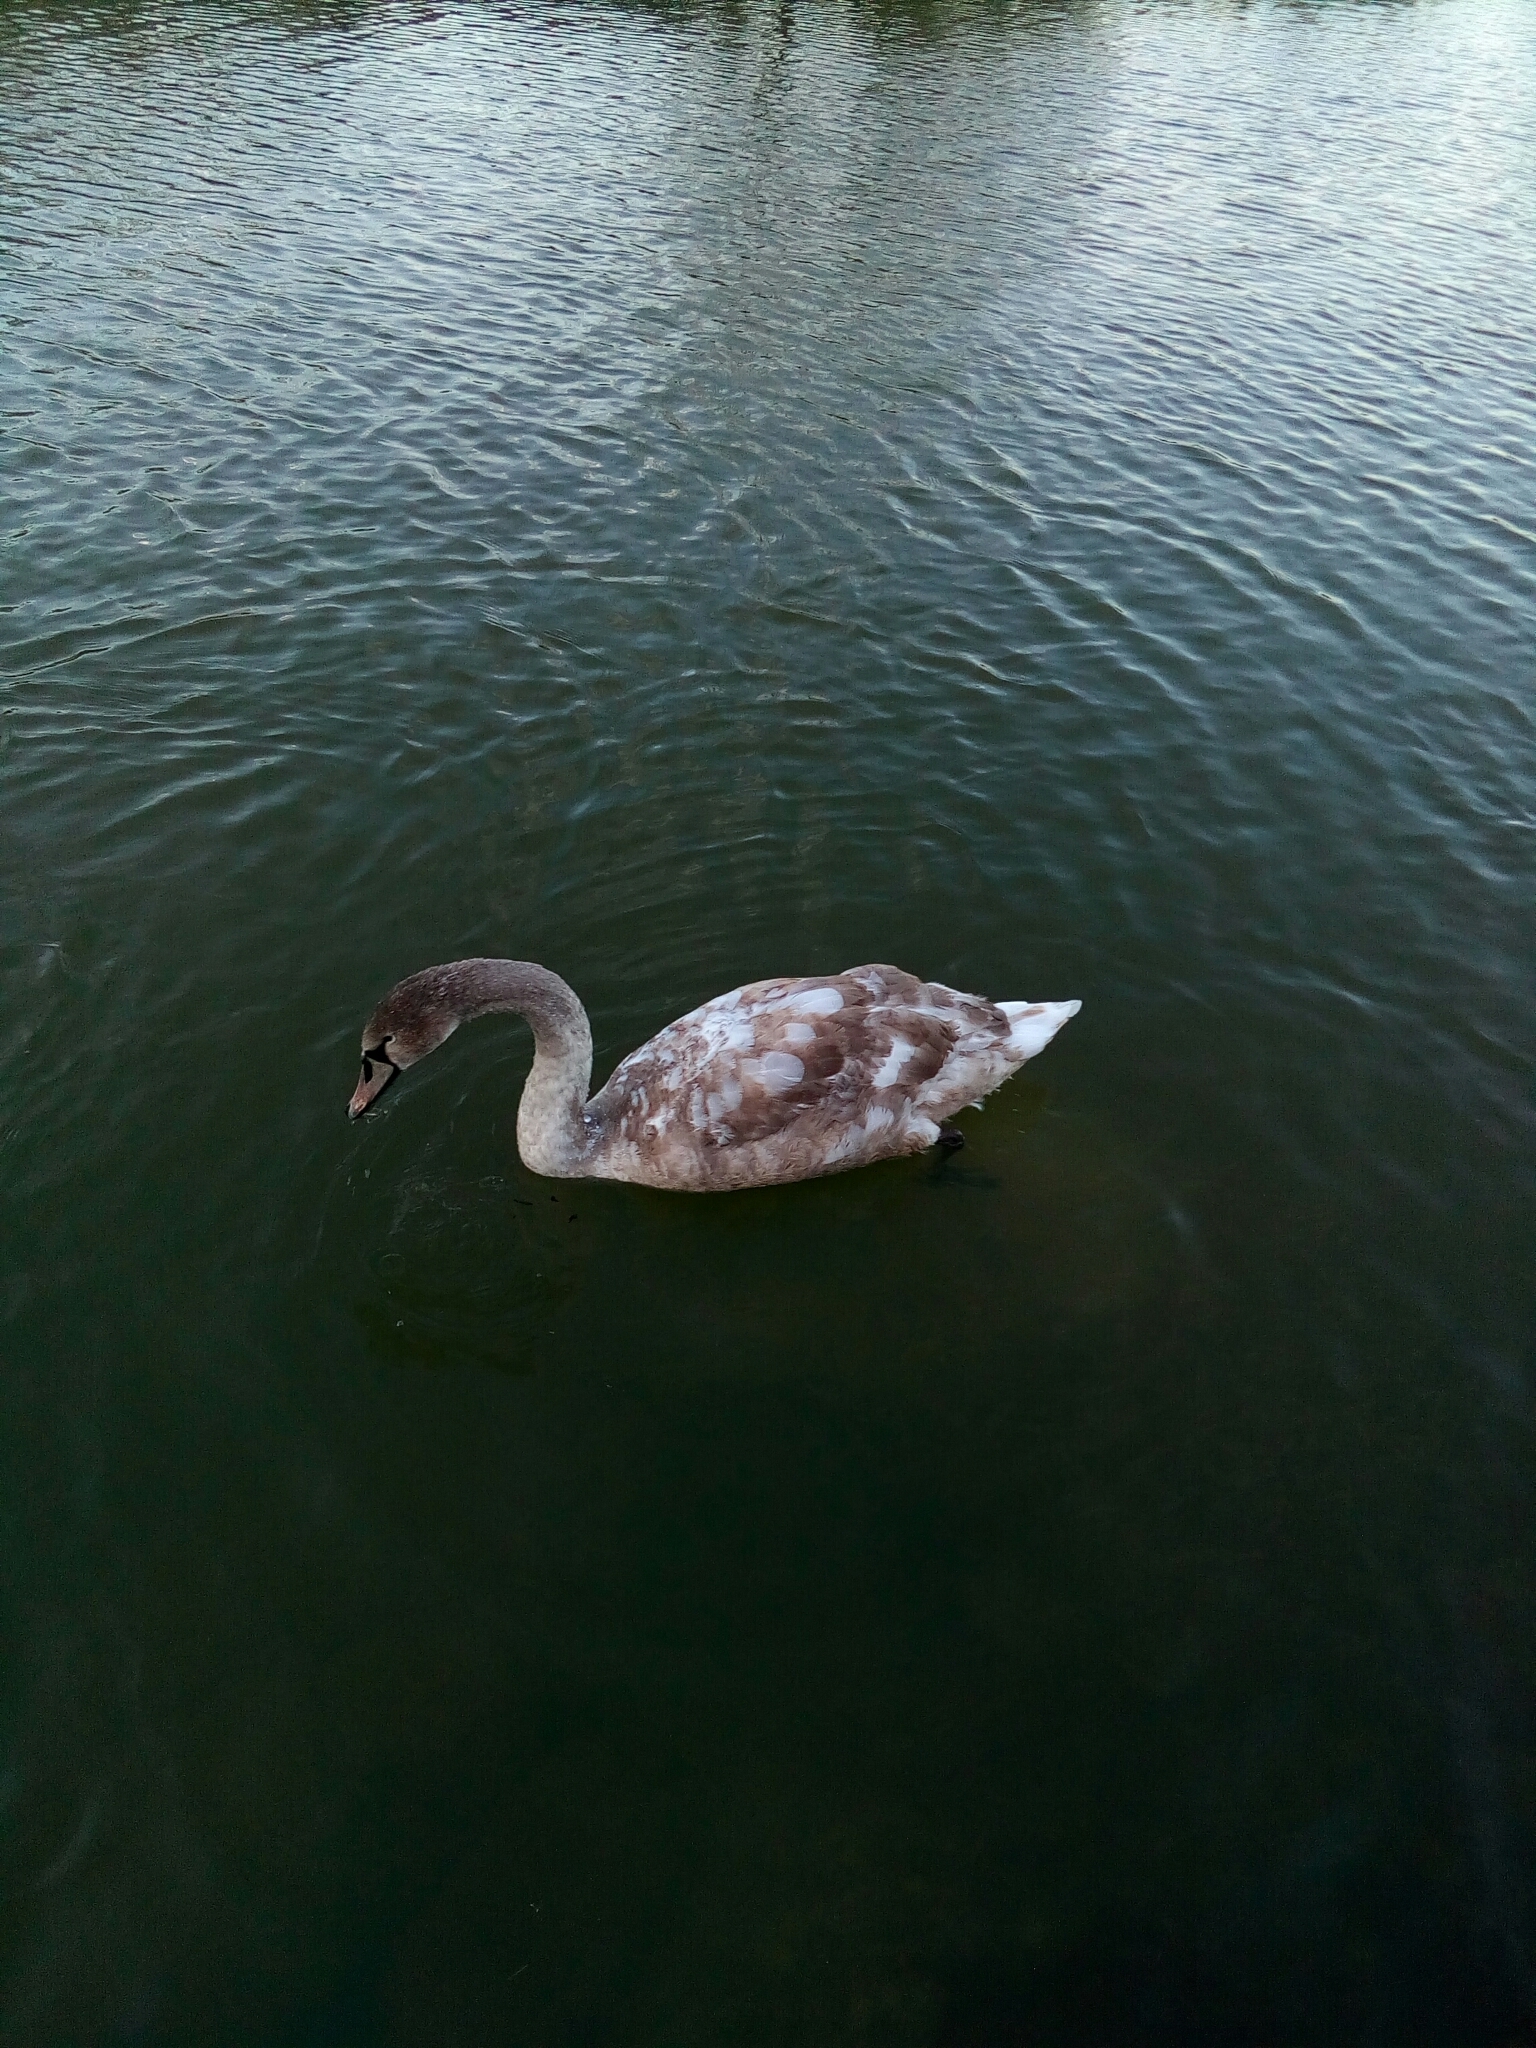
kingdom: Animalia
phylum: Chordata
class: Aves
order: Anseriformes
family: Anatidae
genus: Cygnus
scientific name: Cygnus olor
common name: Mute swan
